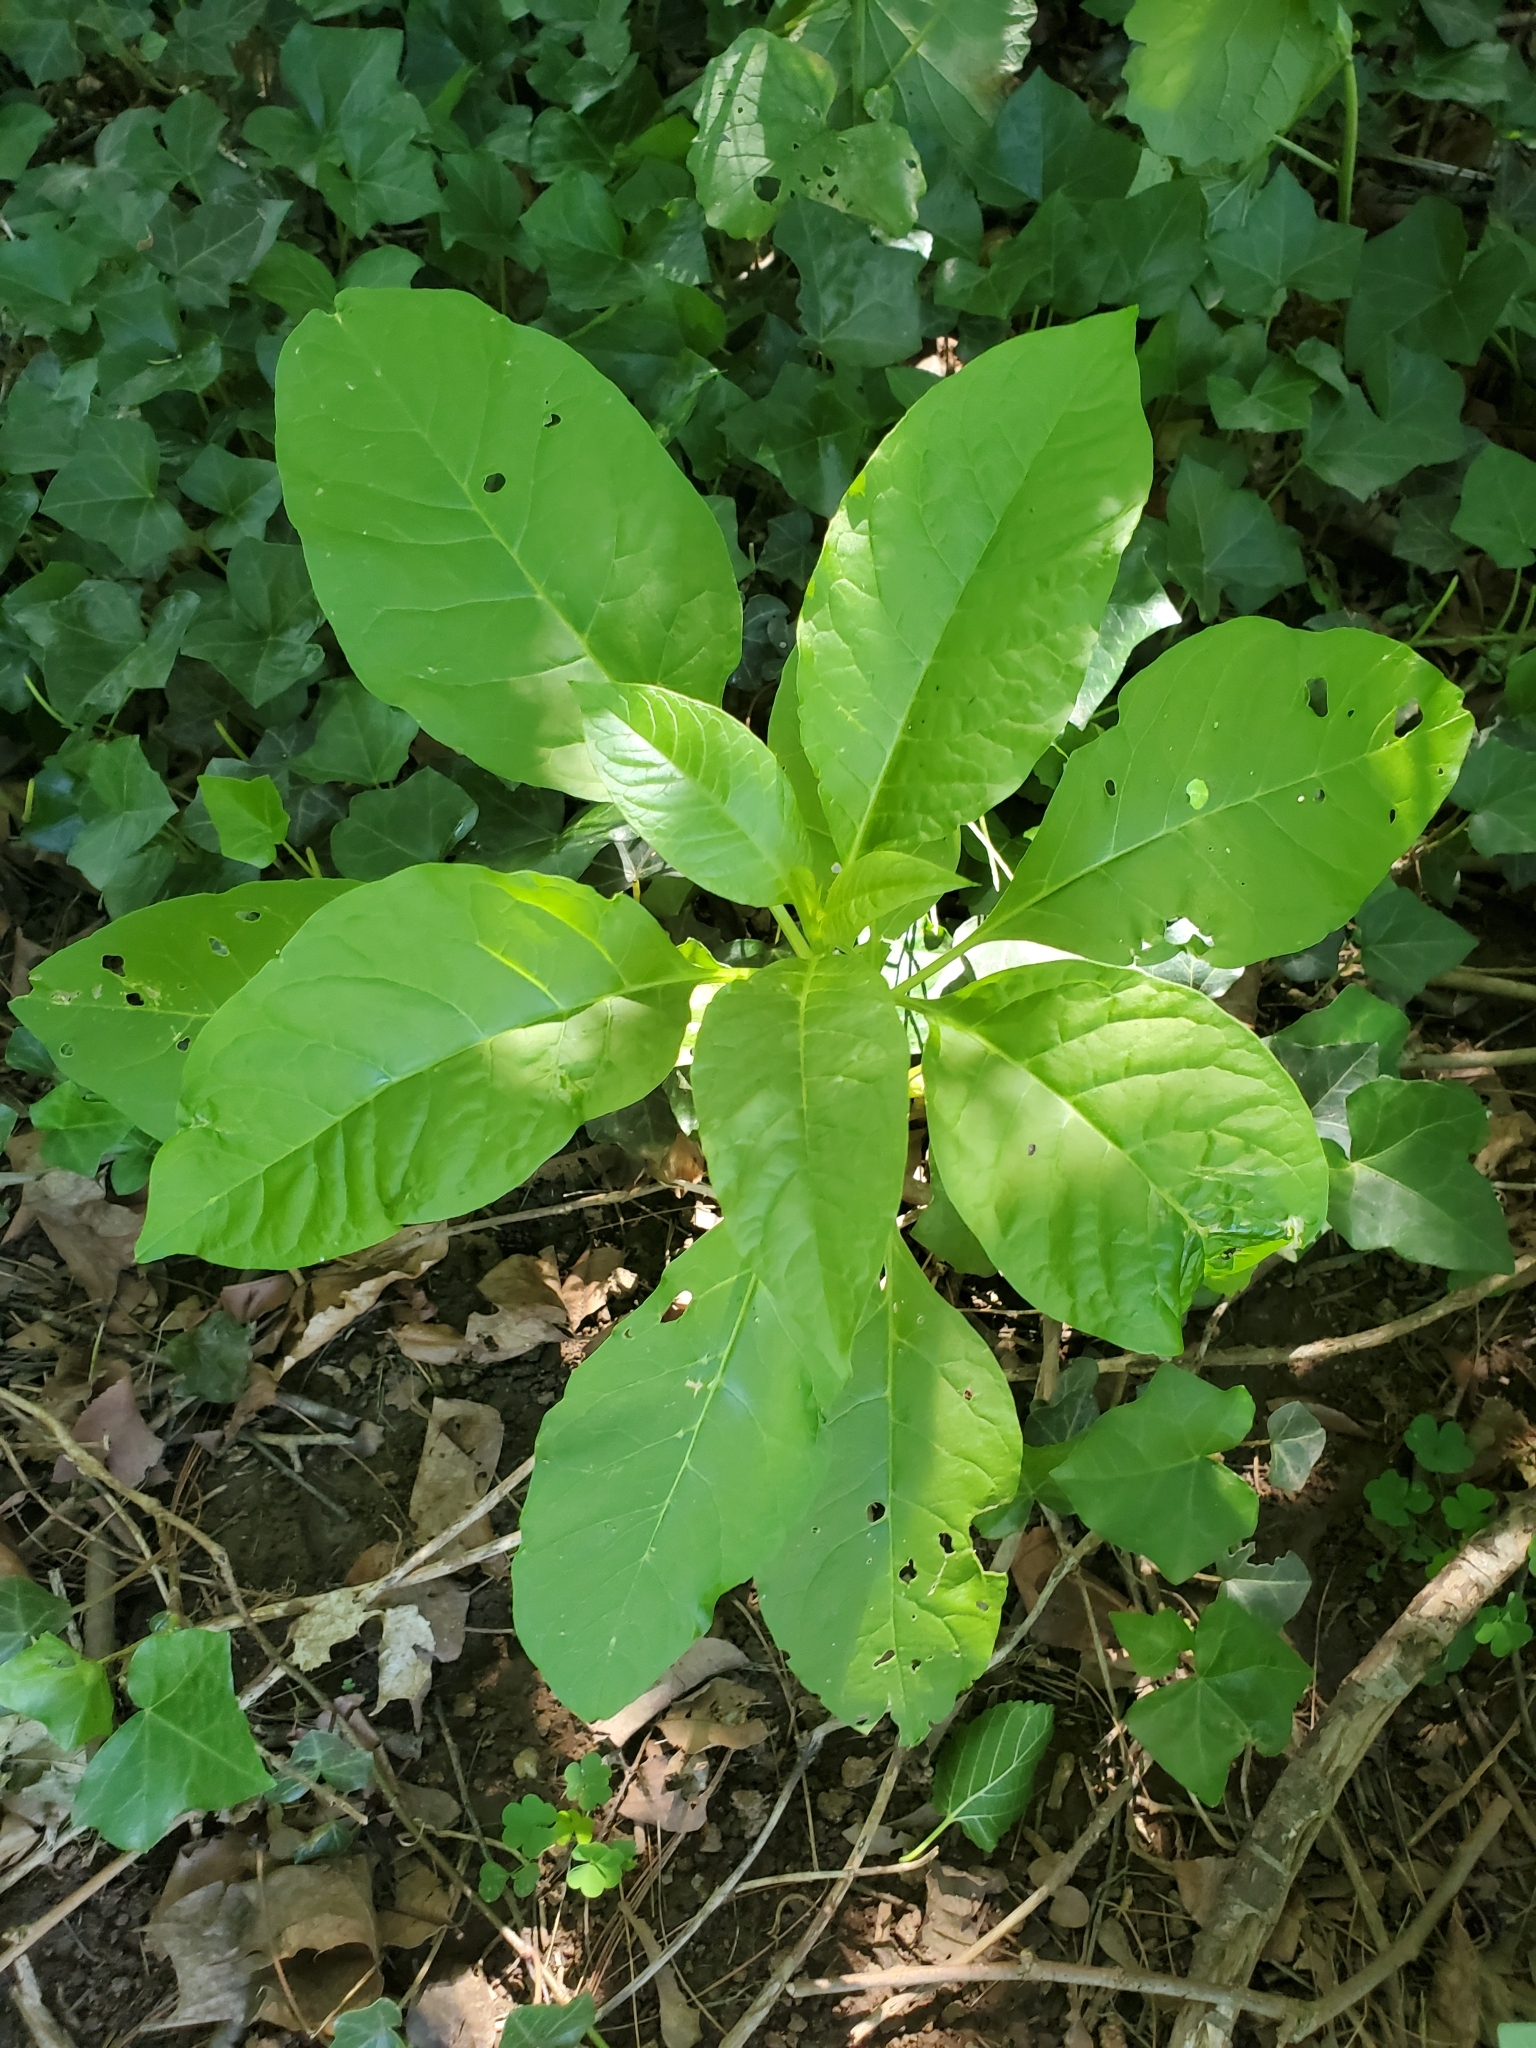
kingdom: Plantae
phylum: Tracheophyta
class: Magnoliopsida
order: Caryophyllales
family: Phytolaccaceae
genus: Phytolacca
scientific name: Phytolacca americana
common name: American pokeweed
